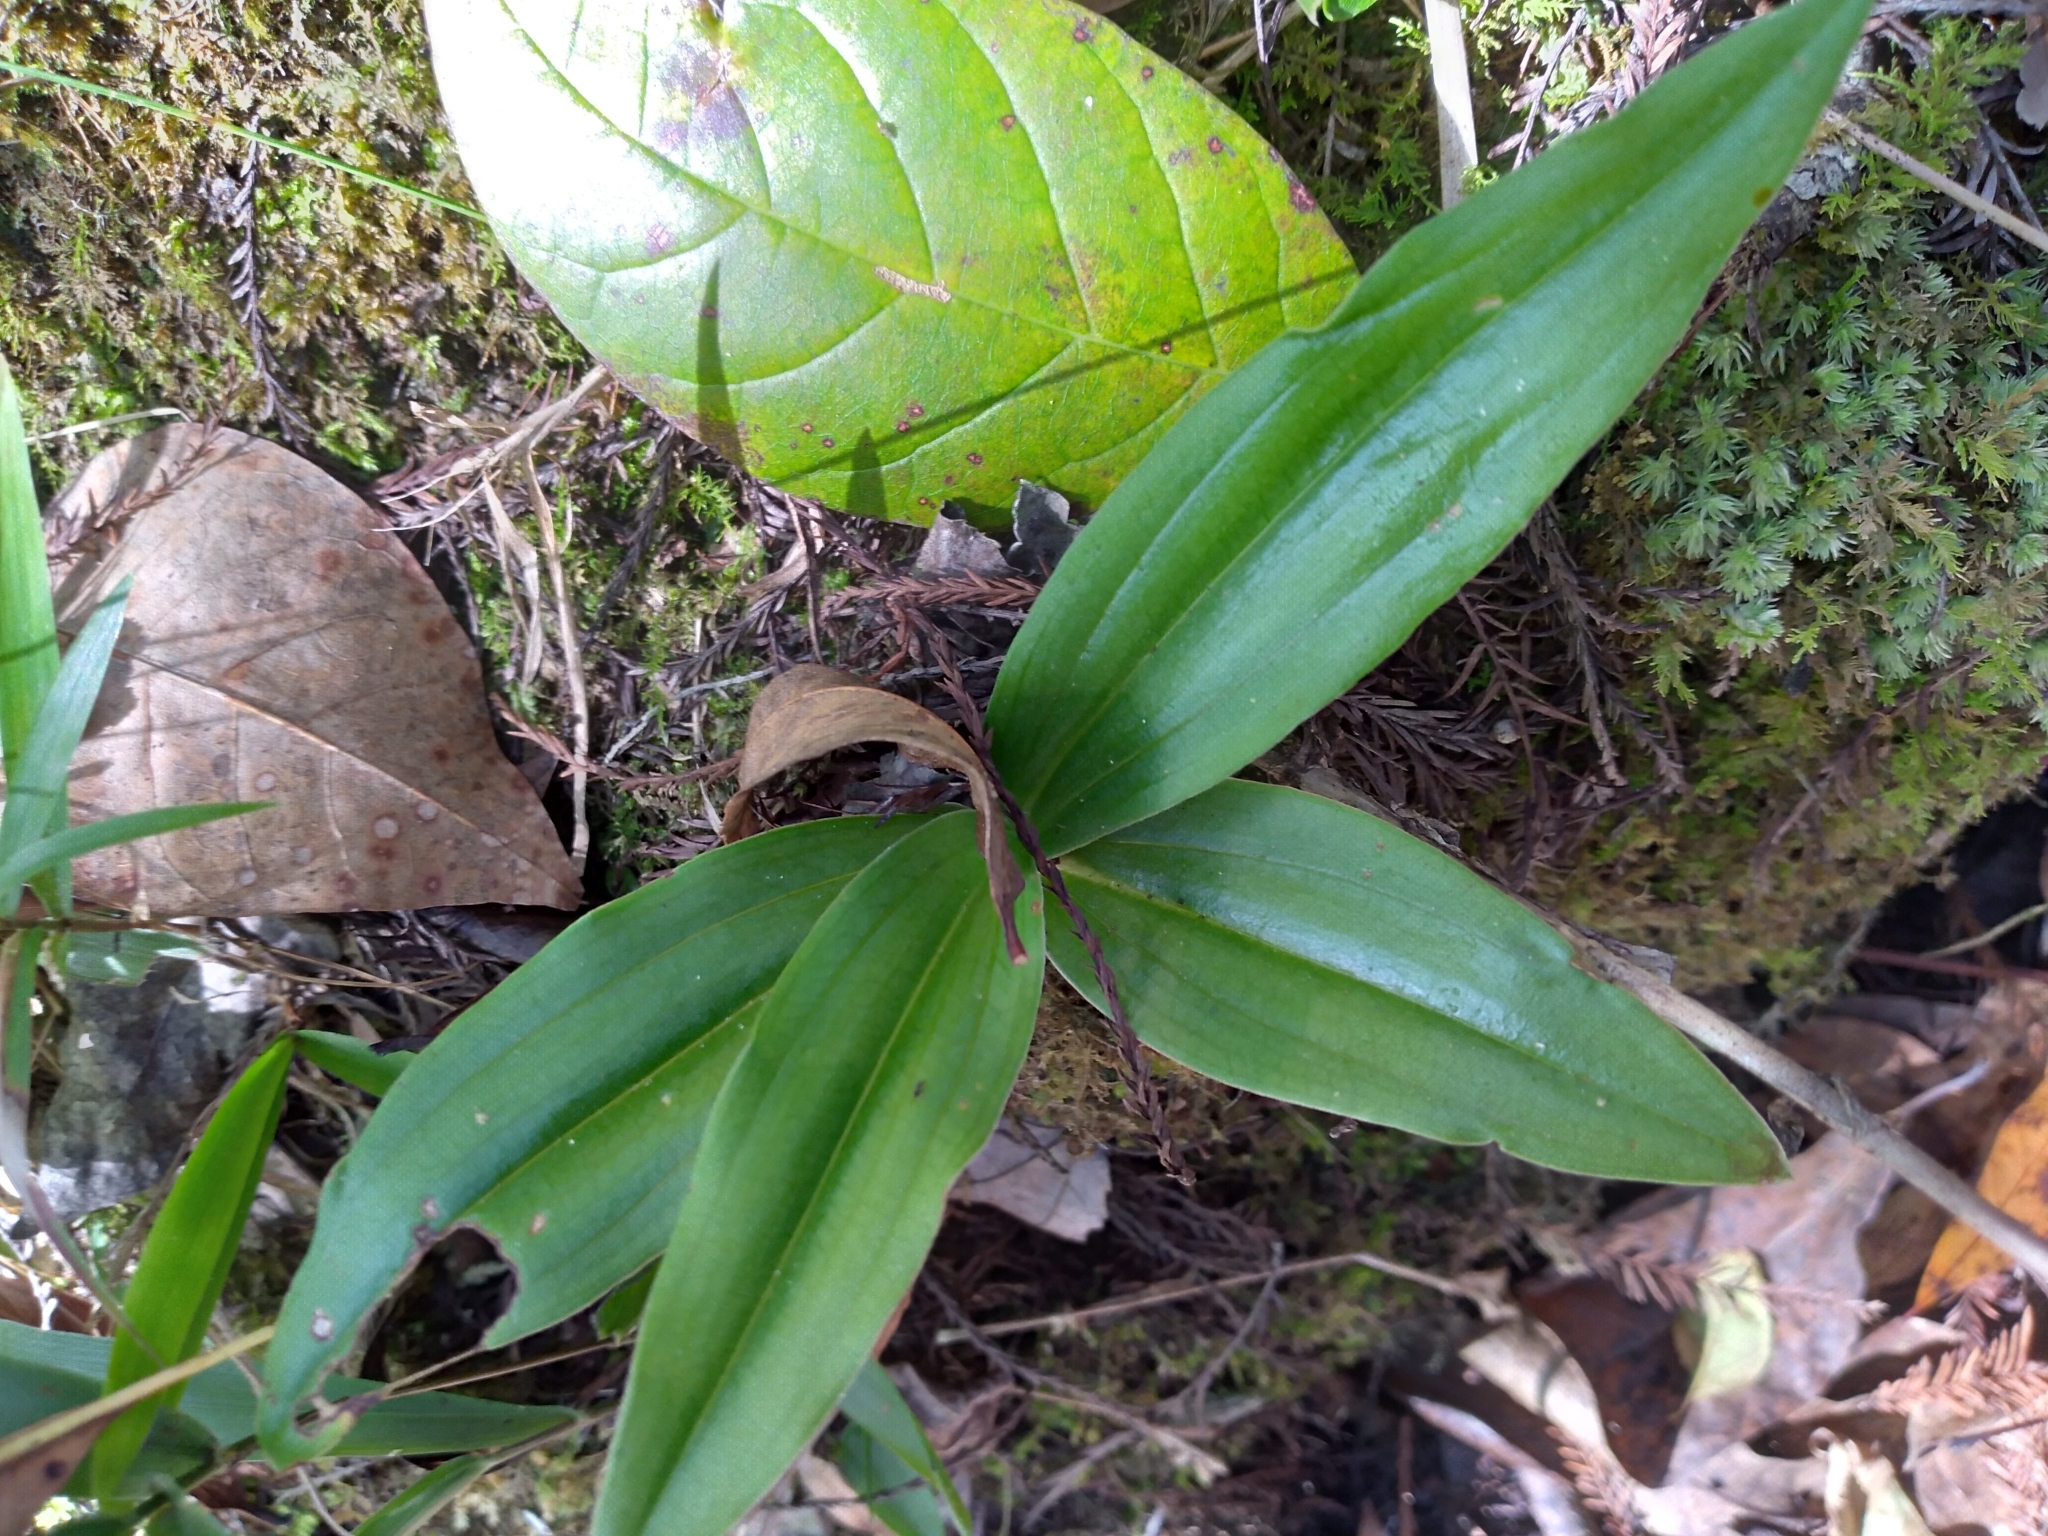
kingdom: Plantae
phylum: Tracheophyta
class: Liliopsida
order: Asparagales
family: Orchidaceae
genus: Habenaria
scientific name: Habenaria floribunda
